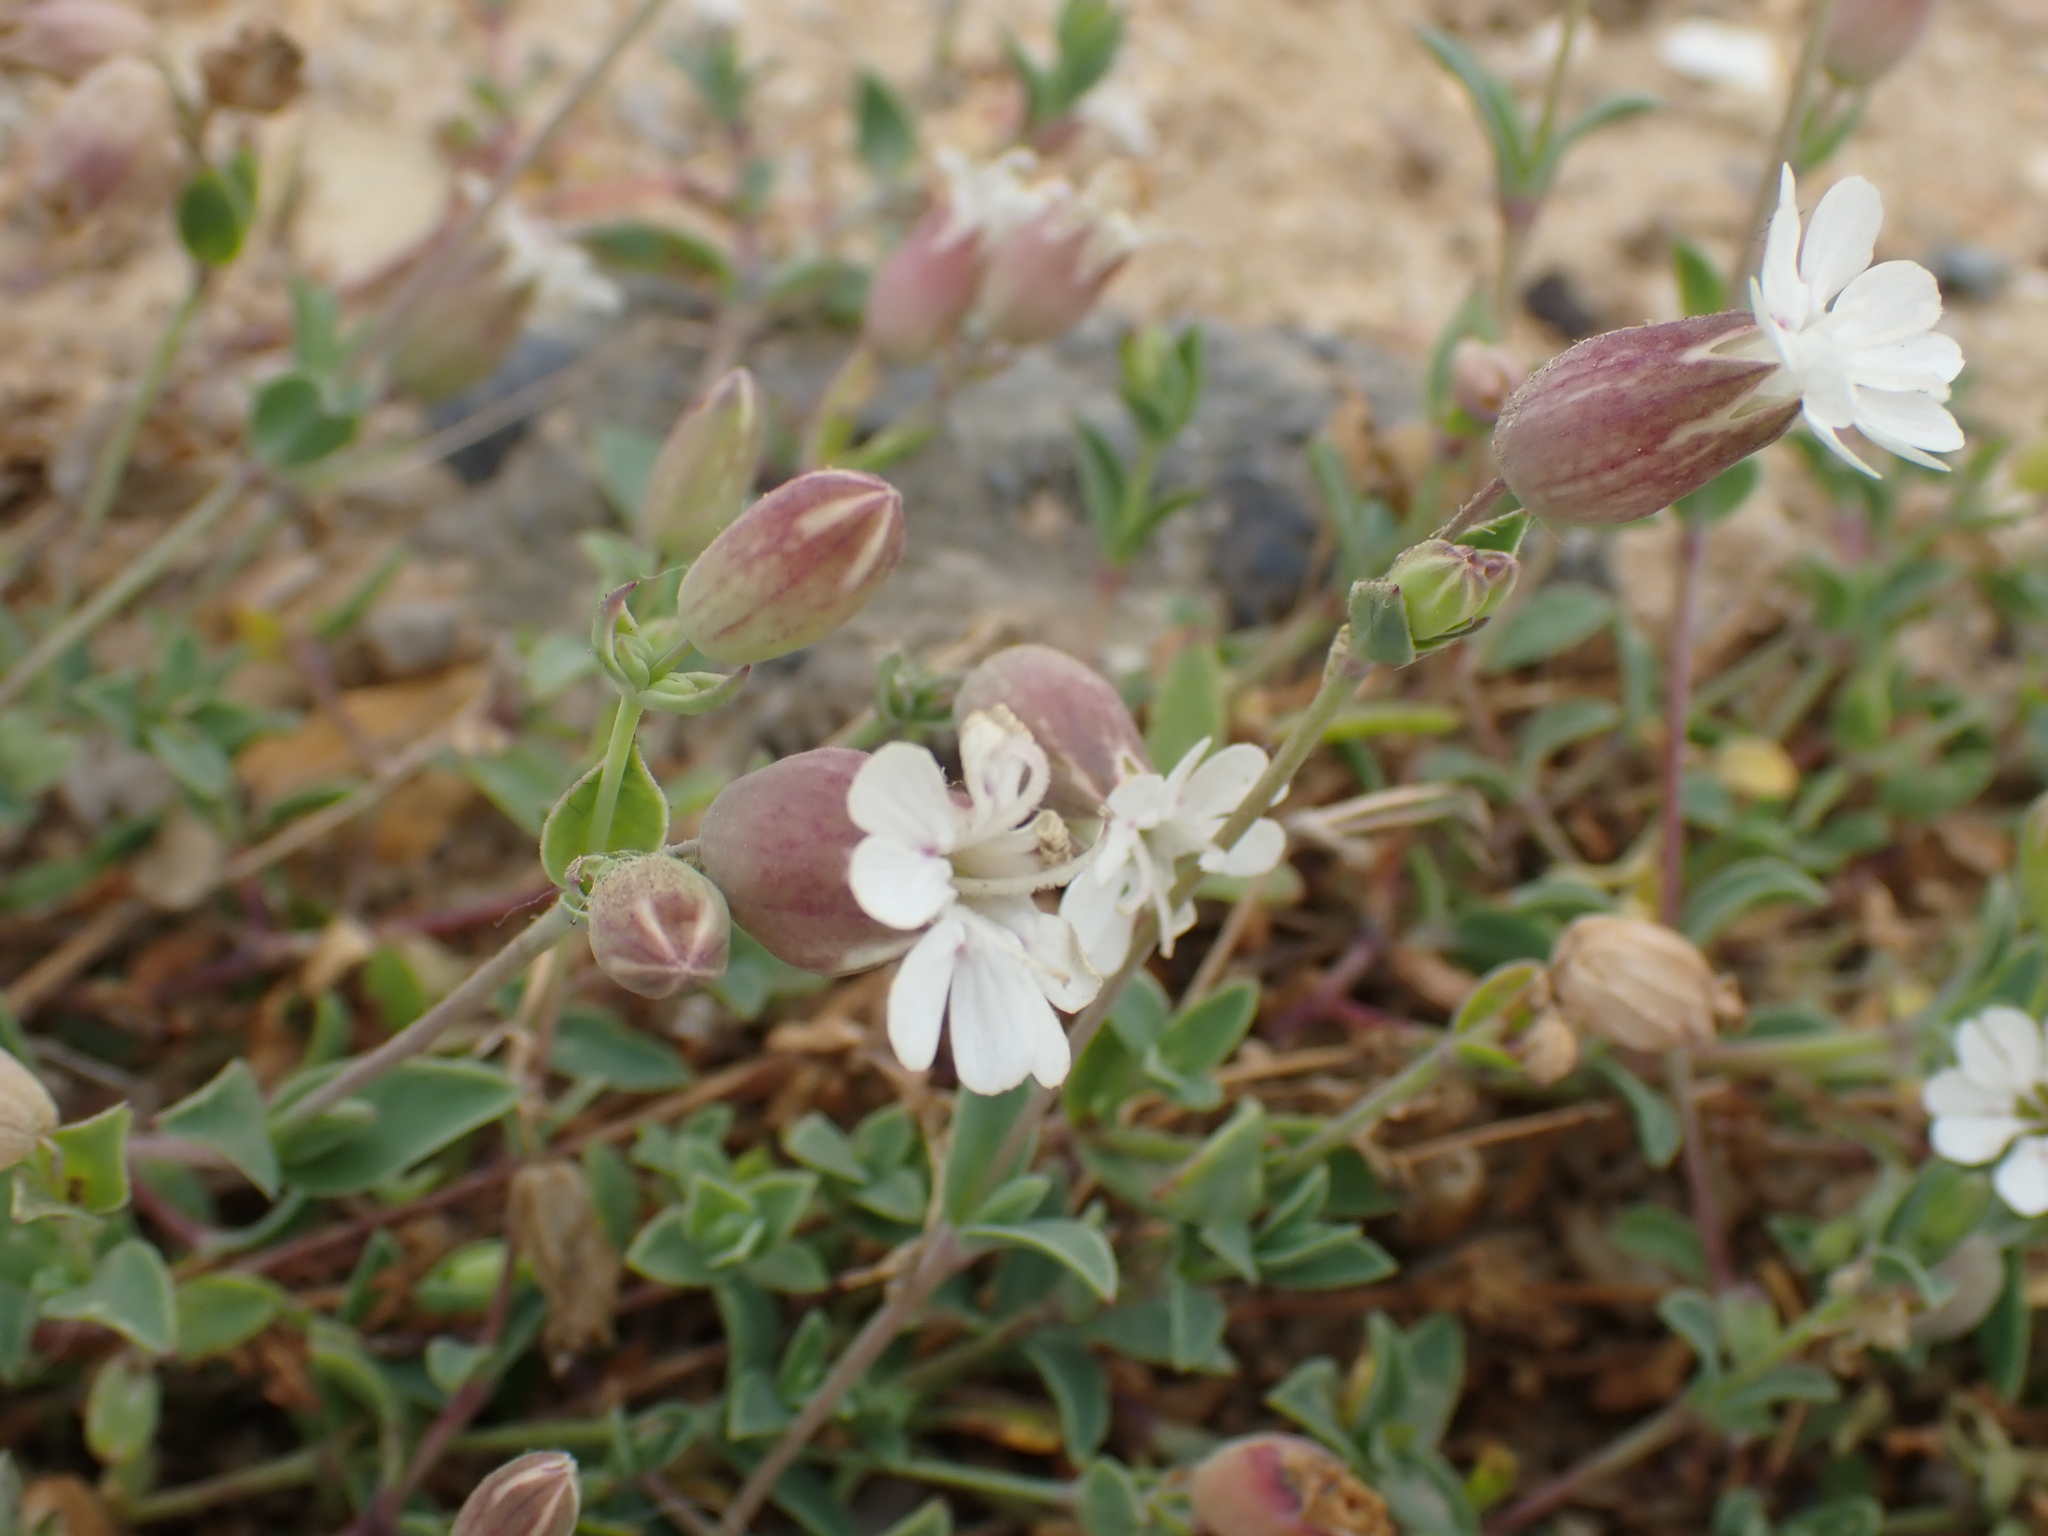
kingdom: Plantae
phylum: Tracheophyta
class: Magnoliopsida
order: Caryophyllales
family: Caryophyllaceae
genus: Silene
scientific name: Silene uniflora
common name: Sea campion
